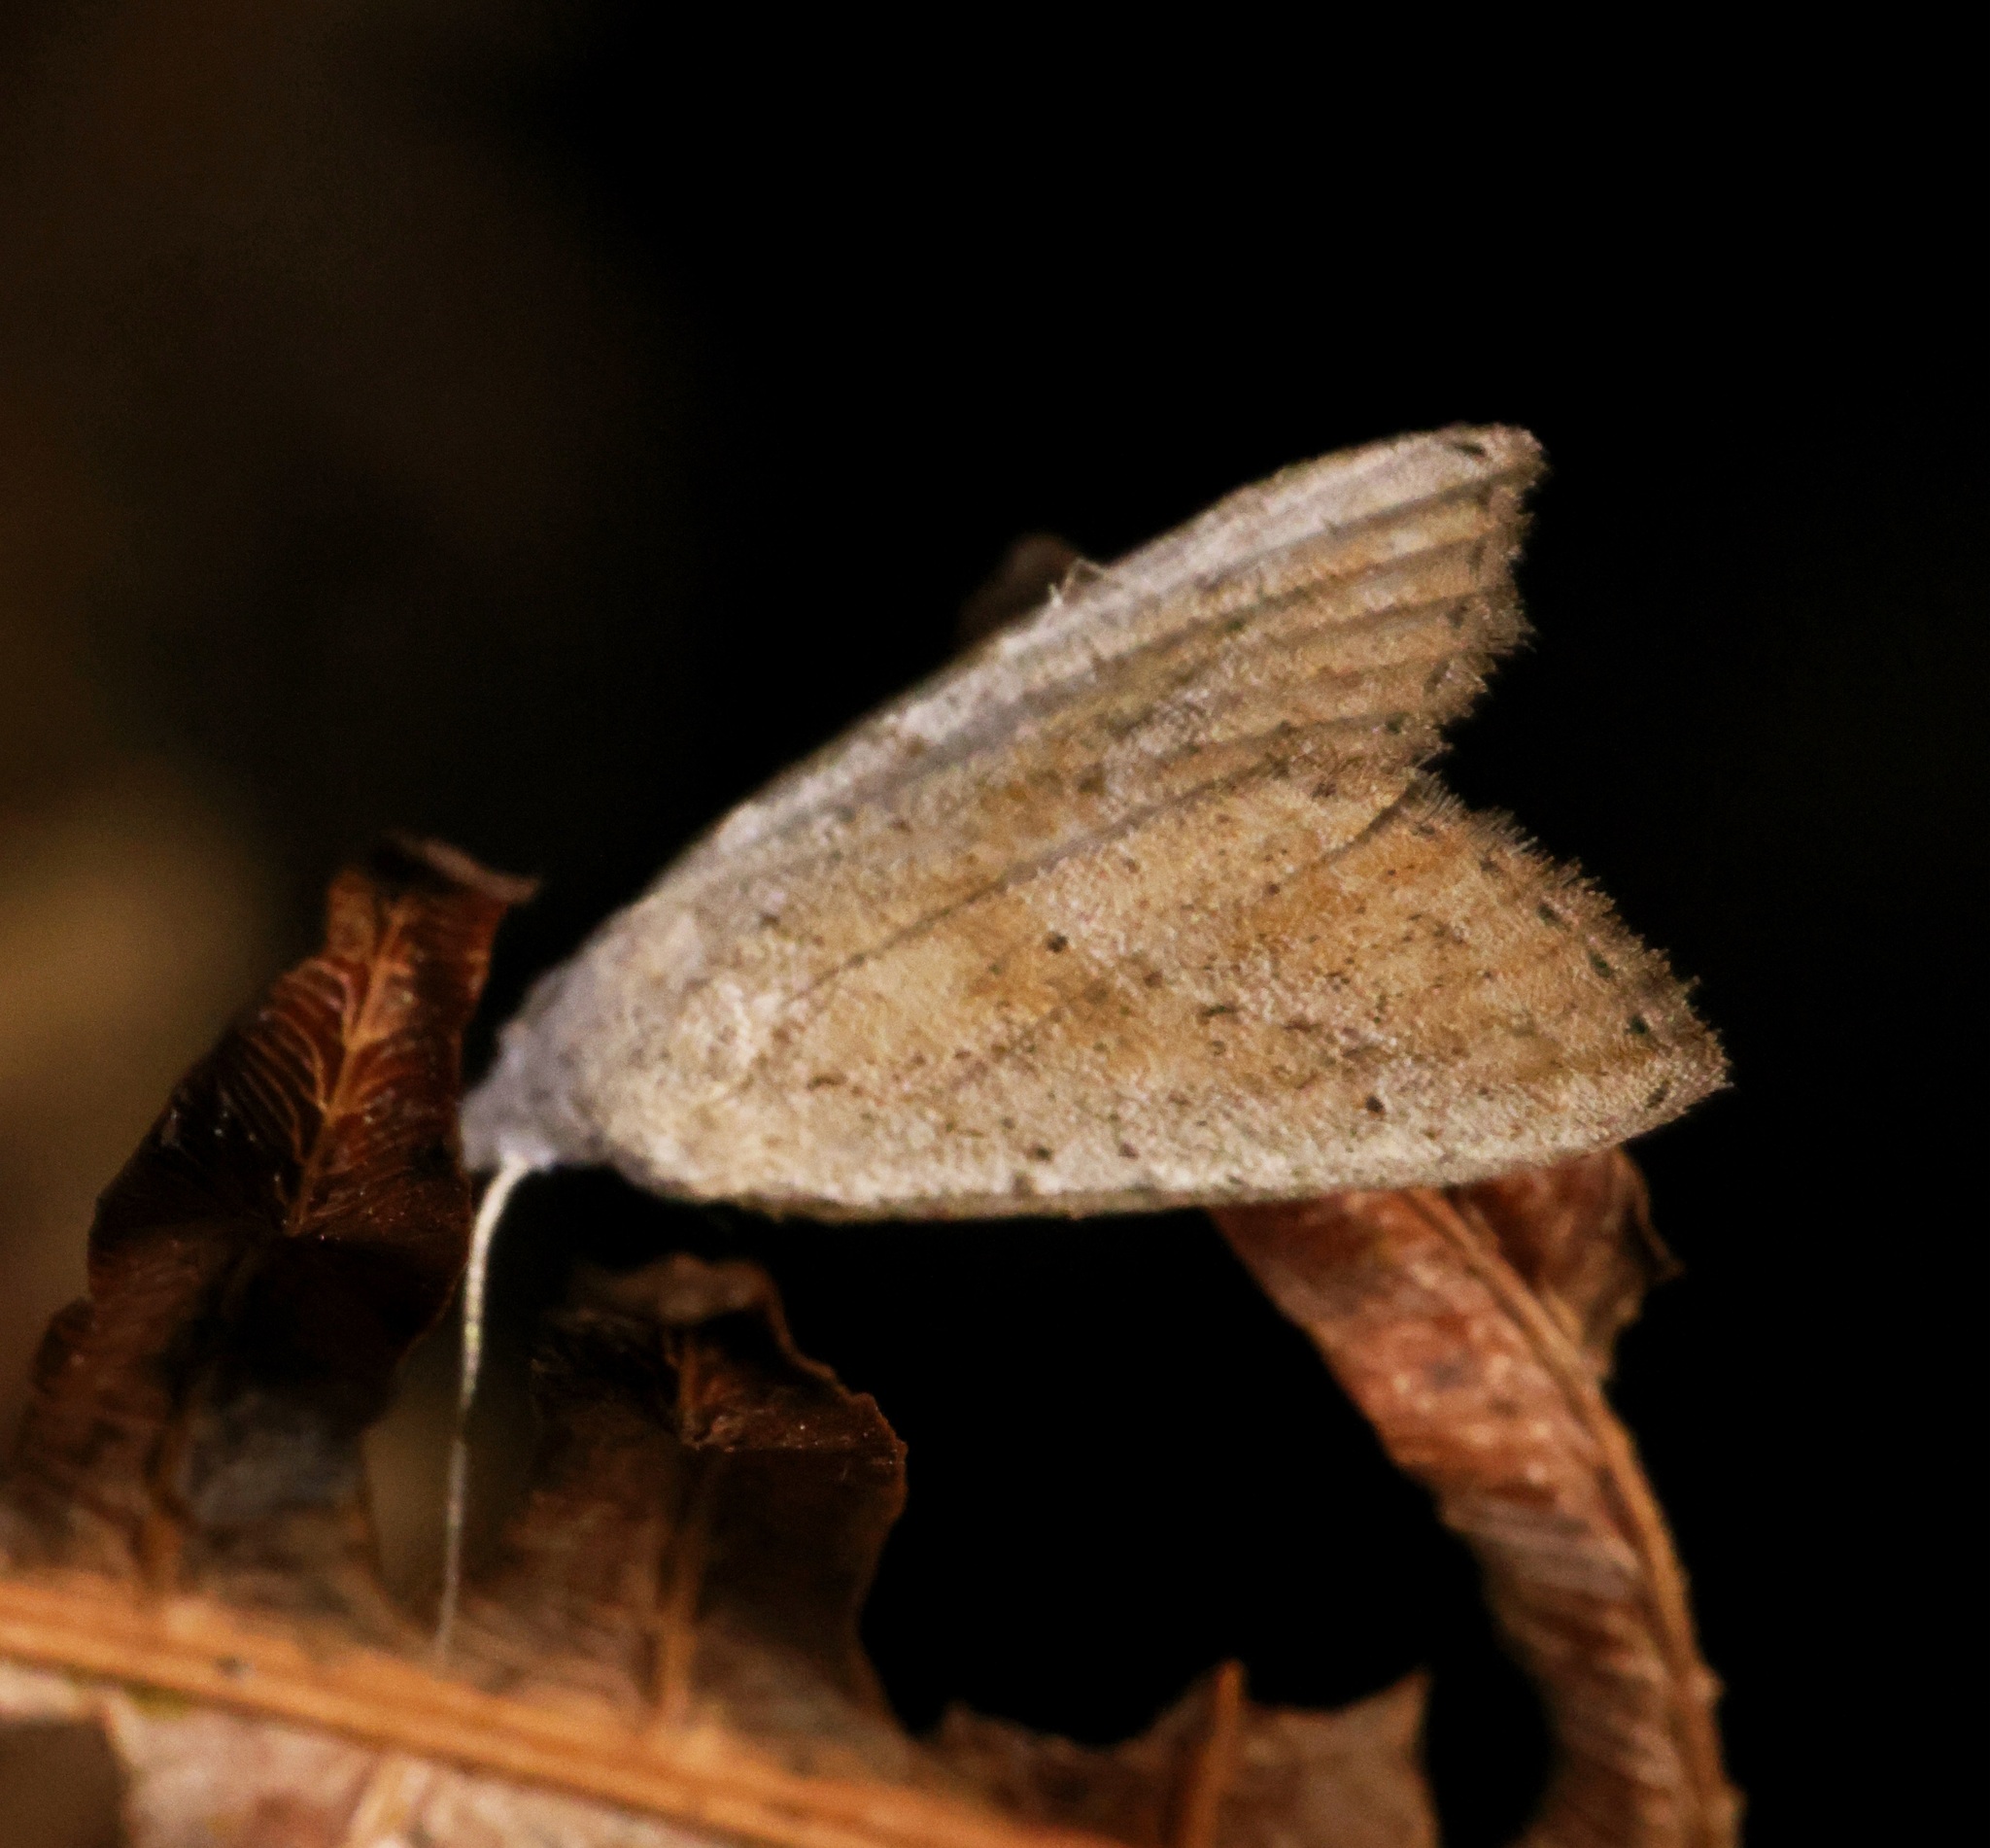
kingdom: Animalia
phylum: Arthropoda
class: Insecta
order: Lepidoptera
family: Nolidae
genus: Meganola
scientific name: Meganola brunellus
